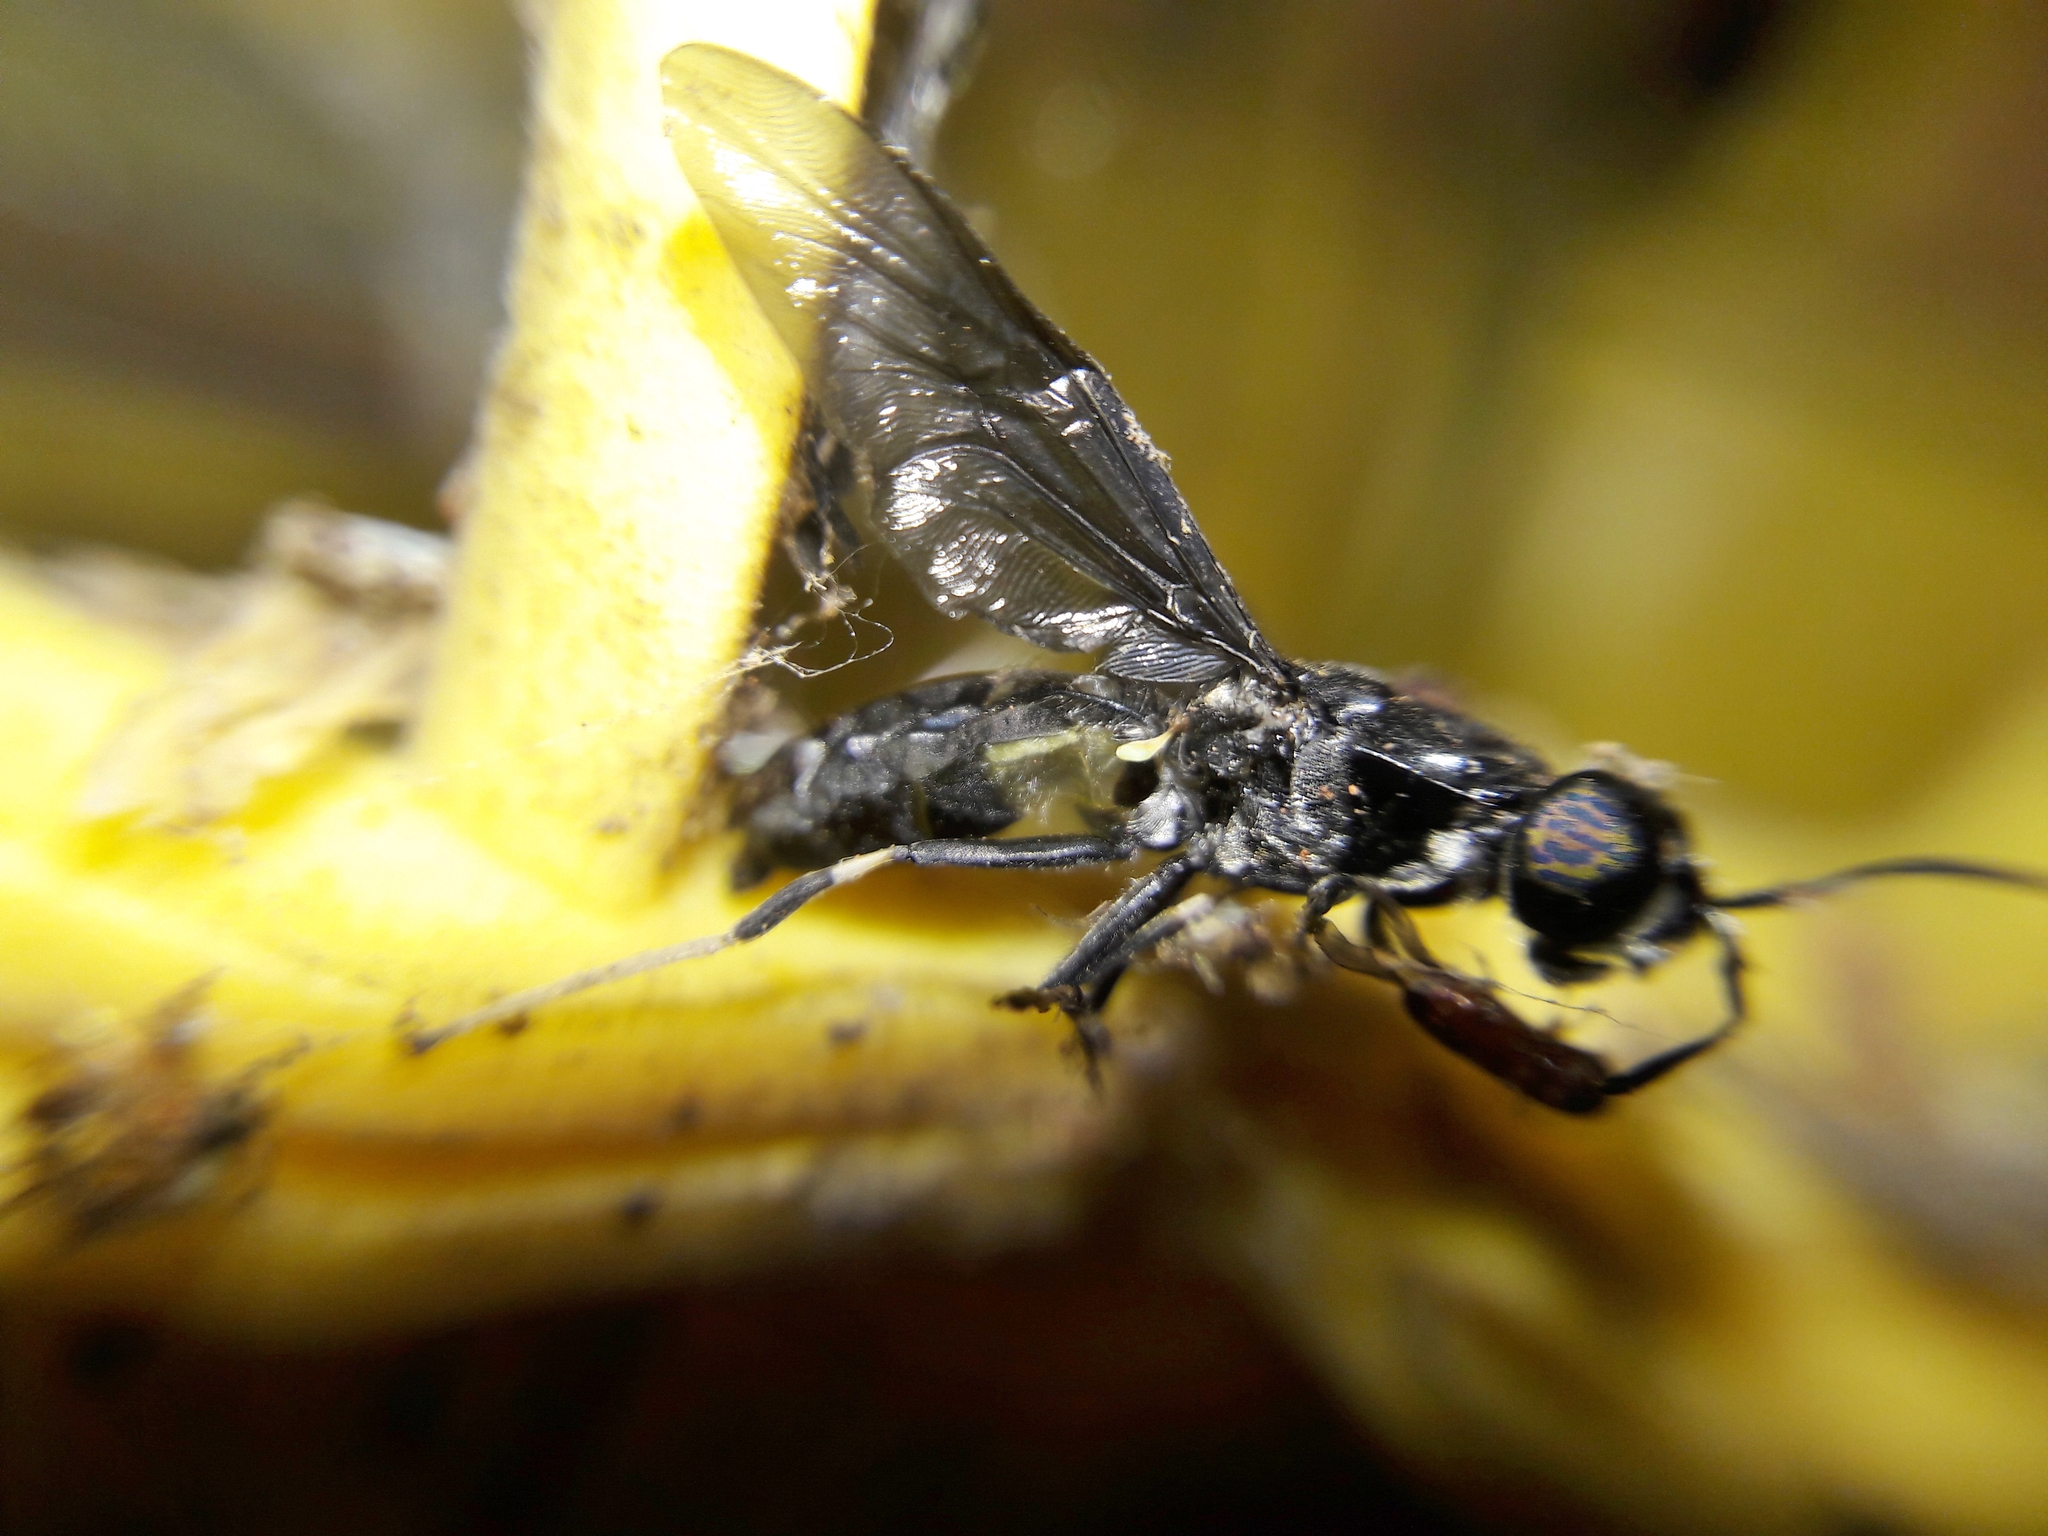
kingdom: Animalia
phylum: Arthropoda
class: Insecta
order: Diptera
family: Stratiomyidae
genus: Hermetia
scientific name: Hermetia illucens
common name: Black soldier fly
